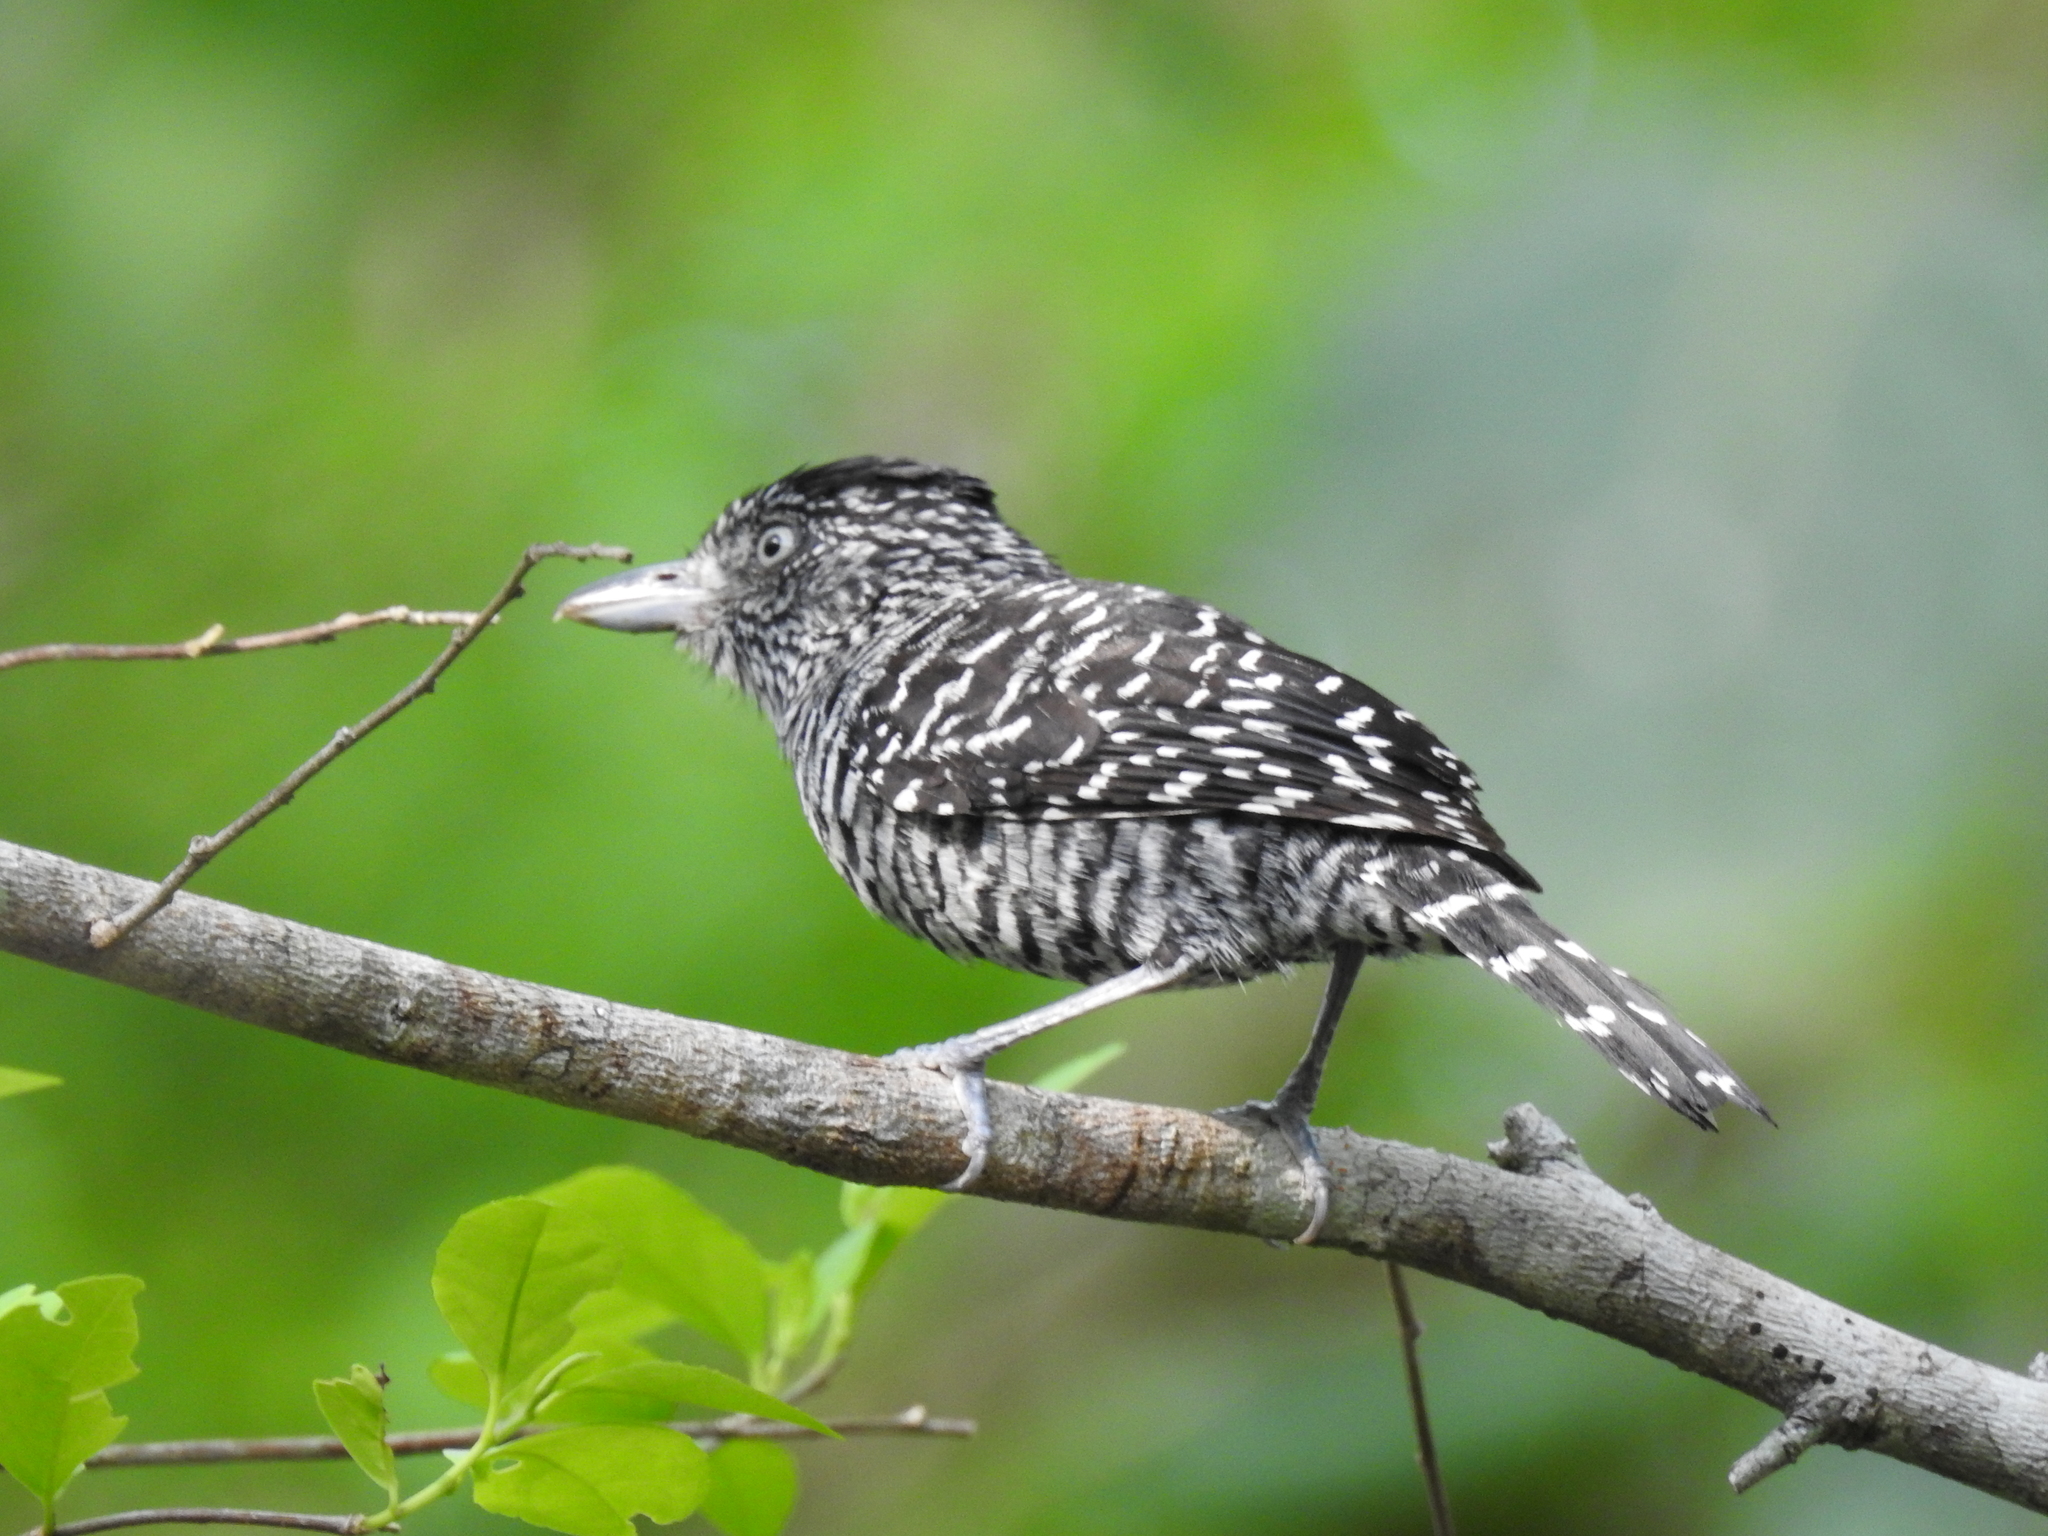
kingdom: Animalia
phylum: Chordata
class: Aves
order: Passeriformes
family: Thamnophilidae
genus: Thamnophilus
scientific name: Thamnophilus doliatus
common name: Barred antshrike
